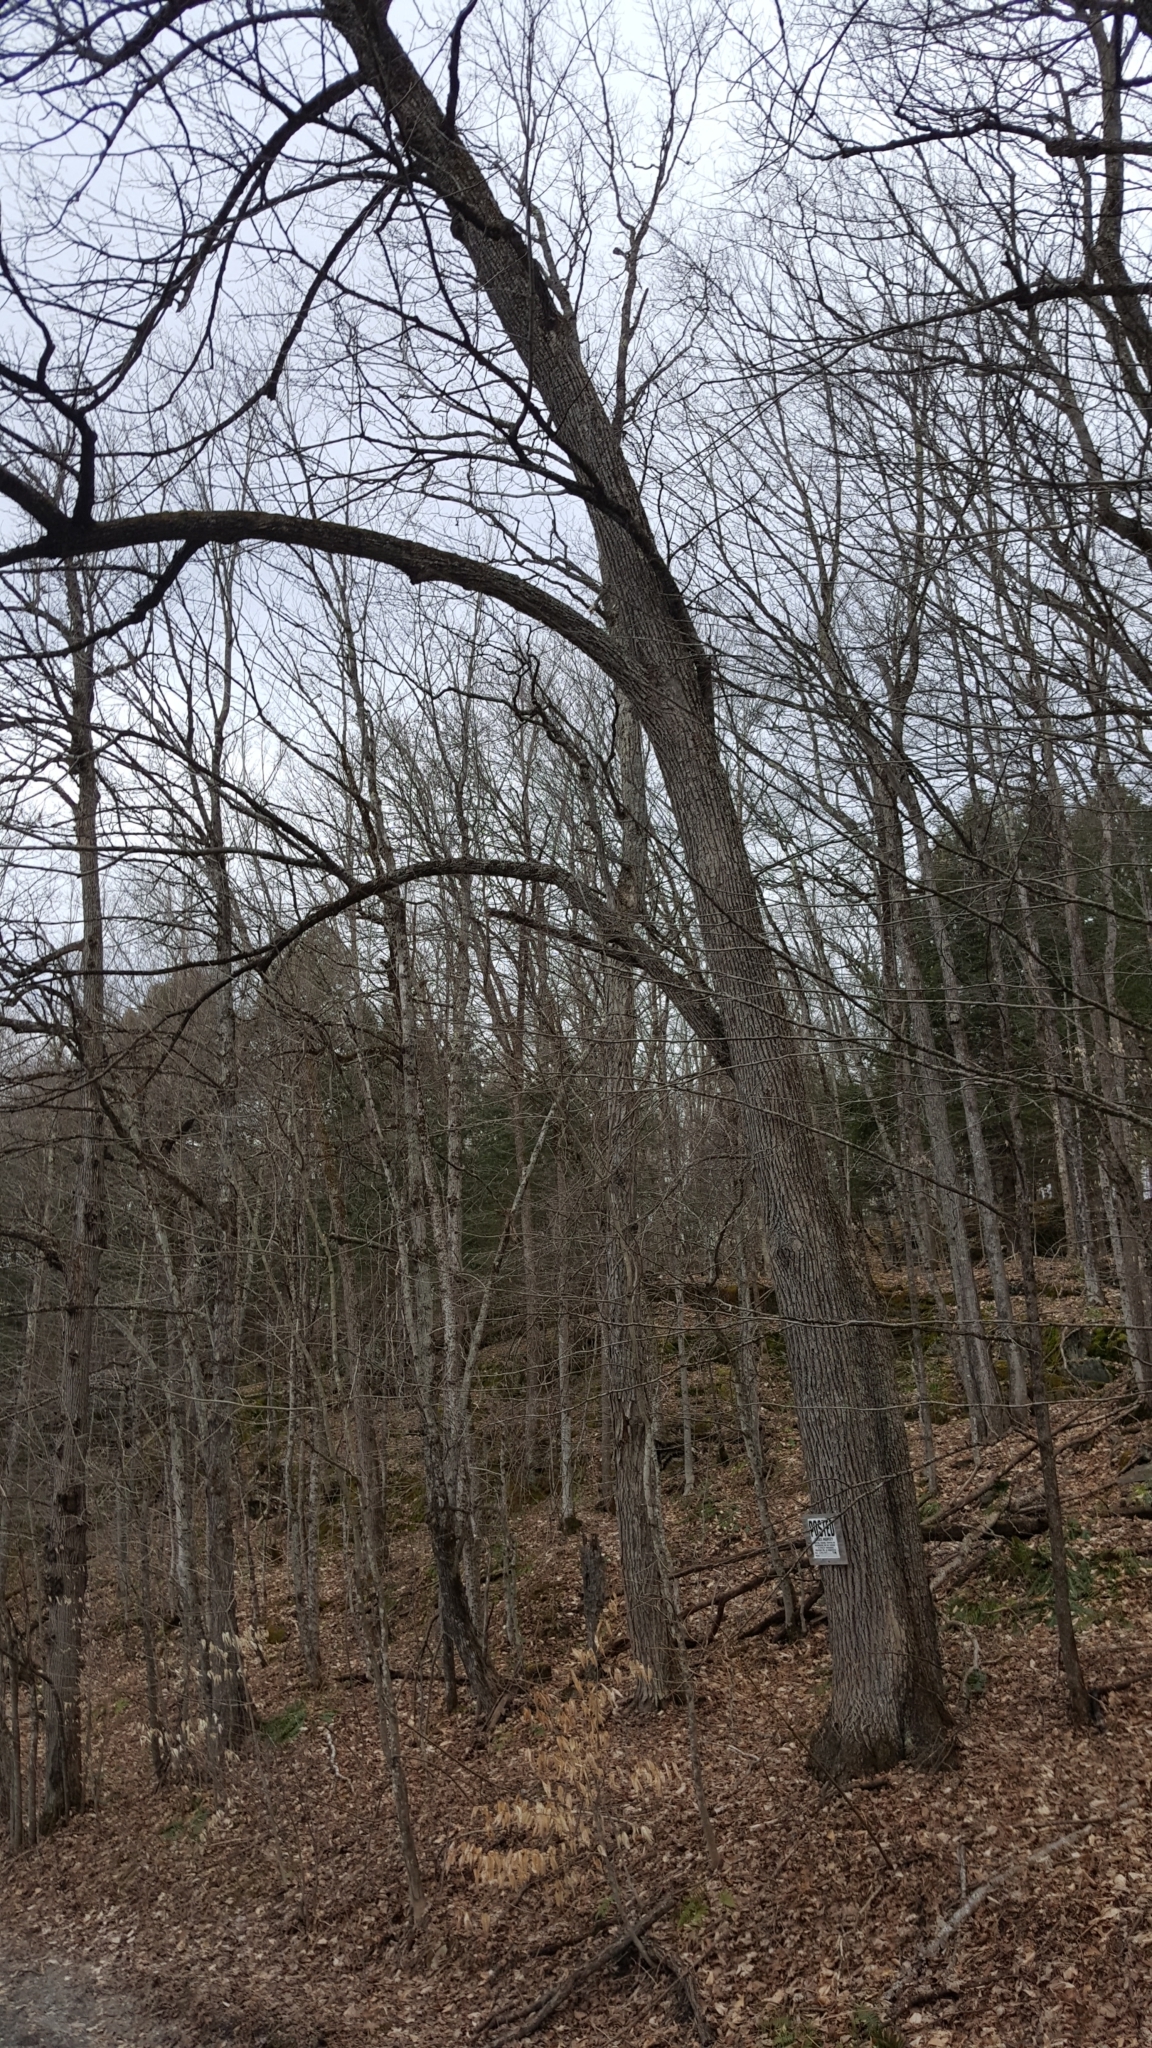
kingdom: Plantae
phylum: Tracheophyta
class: Magnoliopsida
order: Malvales
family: Malvaceae
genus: Tilia
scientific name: Tilia americana
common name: Basswood
